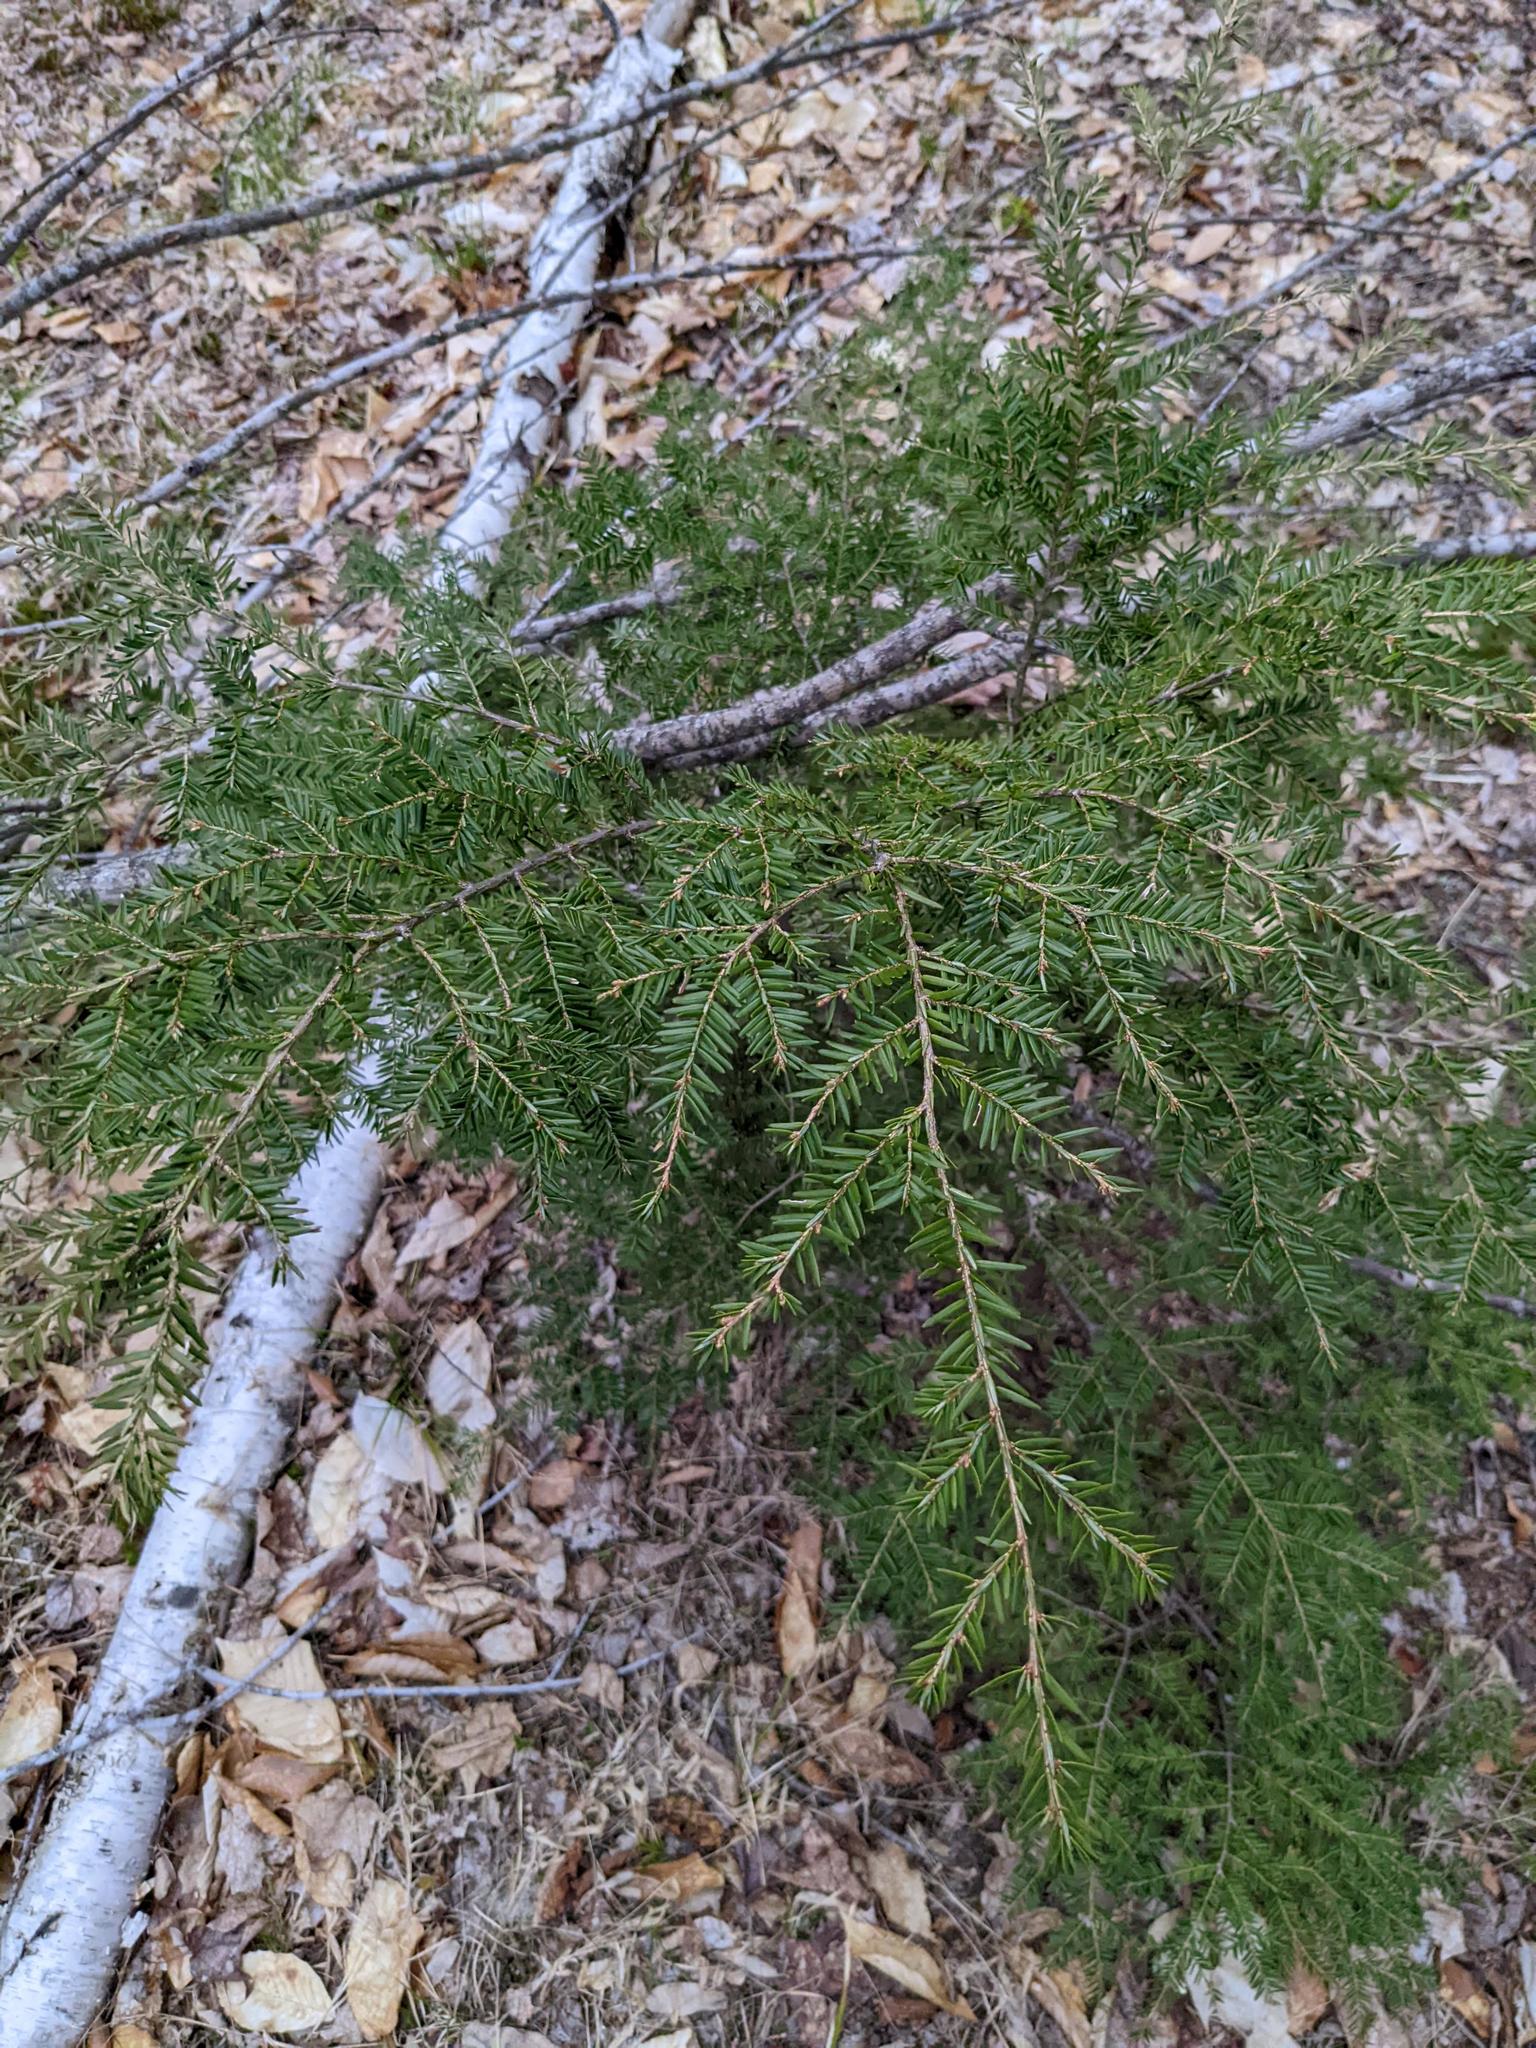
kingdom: Plantae
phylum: Tracheophyta
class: Magnoliopsida
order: Fagales
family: Fagaceae
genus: Fagus
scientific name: Fagus grandifolia
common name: American beech
